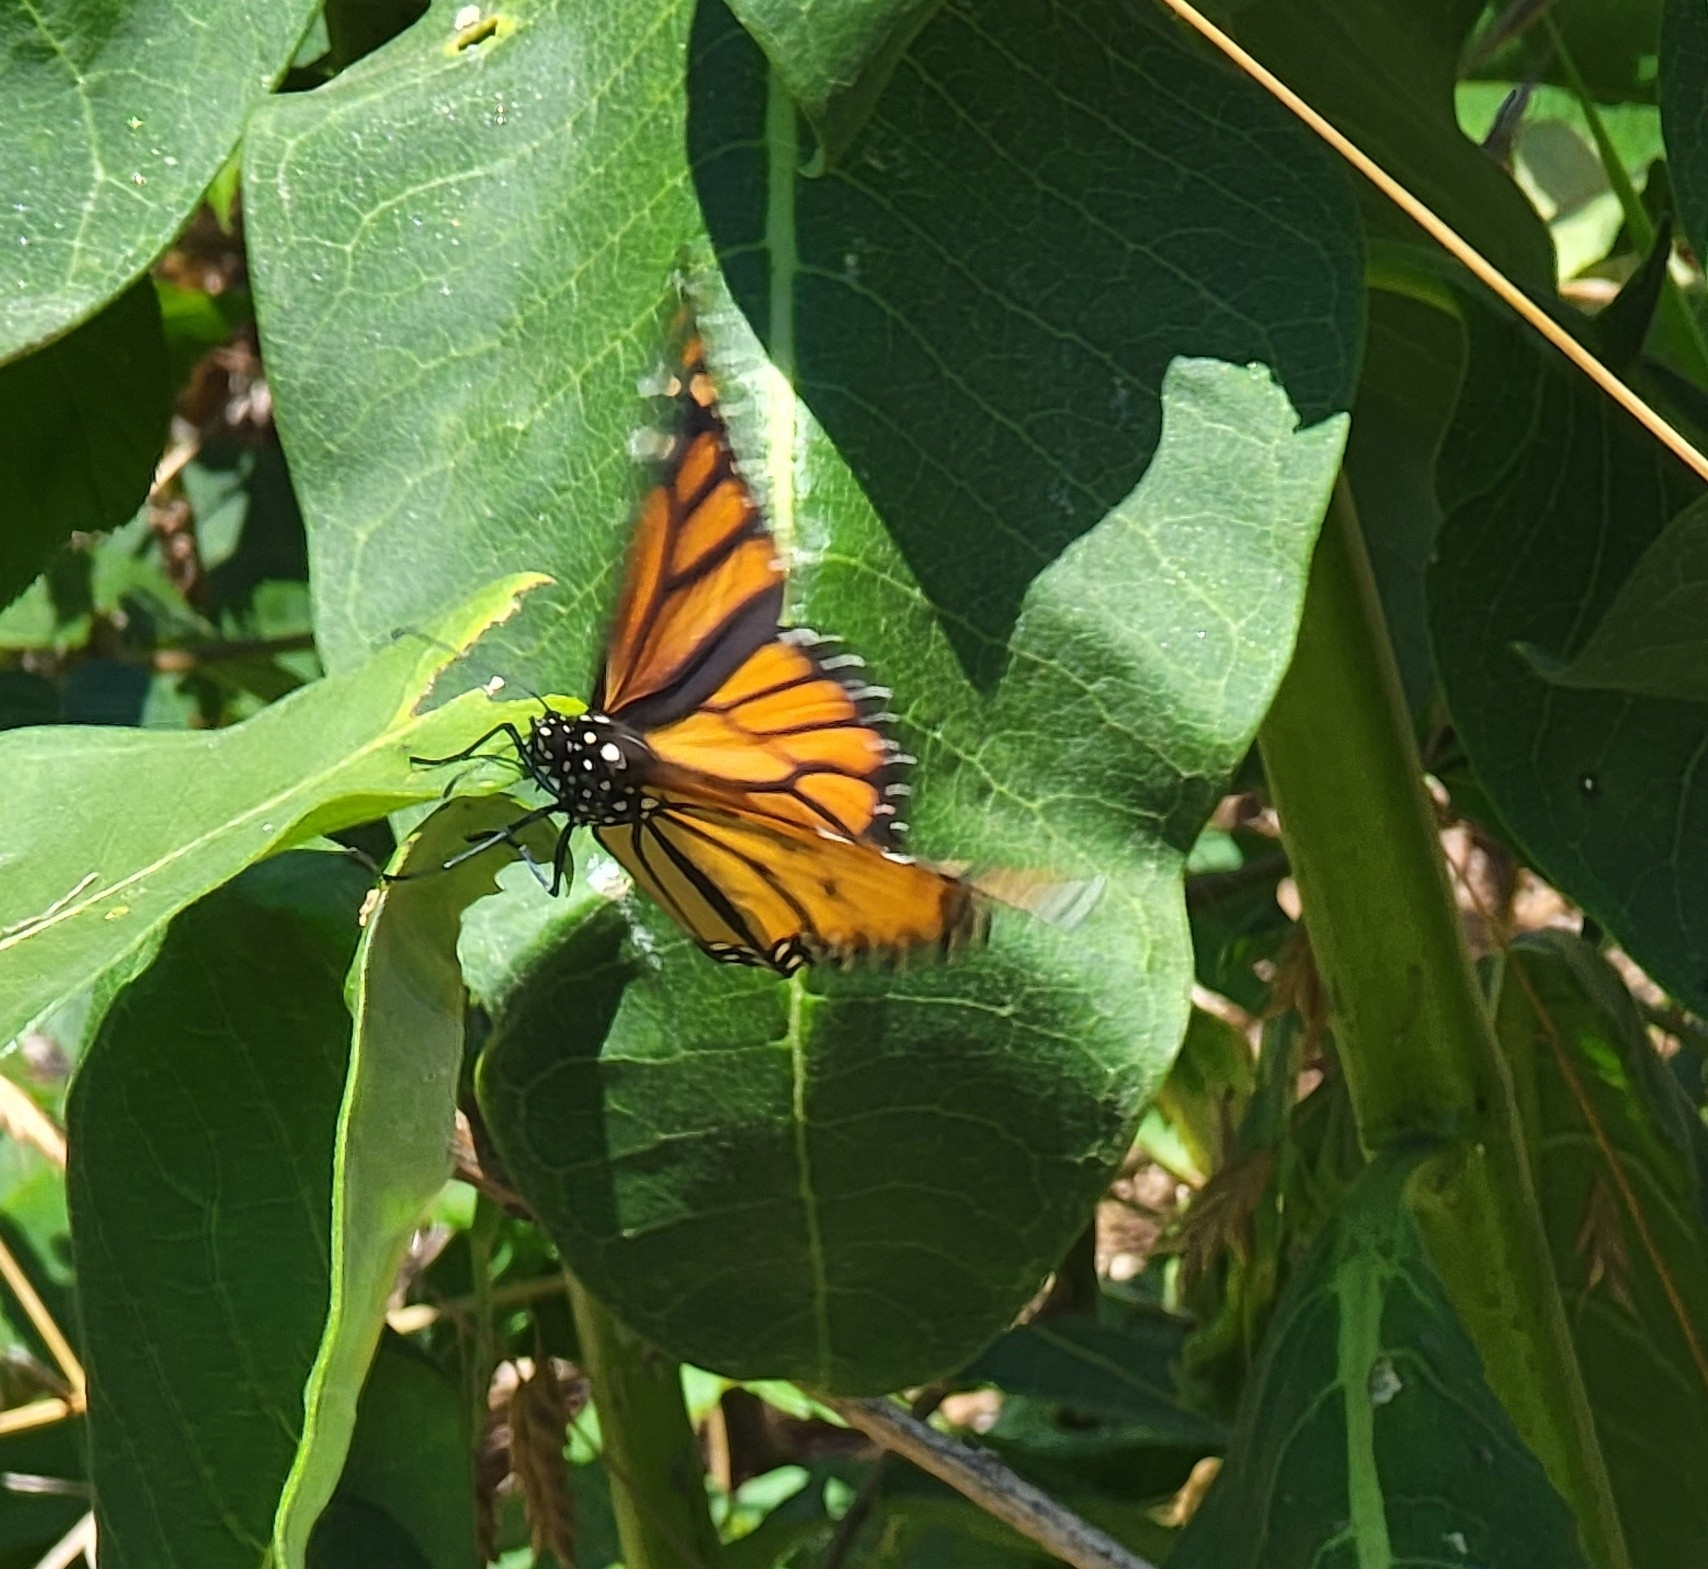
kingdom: Animalia
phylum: Arthropoda
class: Insecta
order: Lepidoptera
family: Nymphalidae
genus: Danaus
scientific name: Danaus plexippus
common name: Monarch
